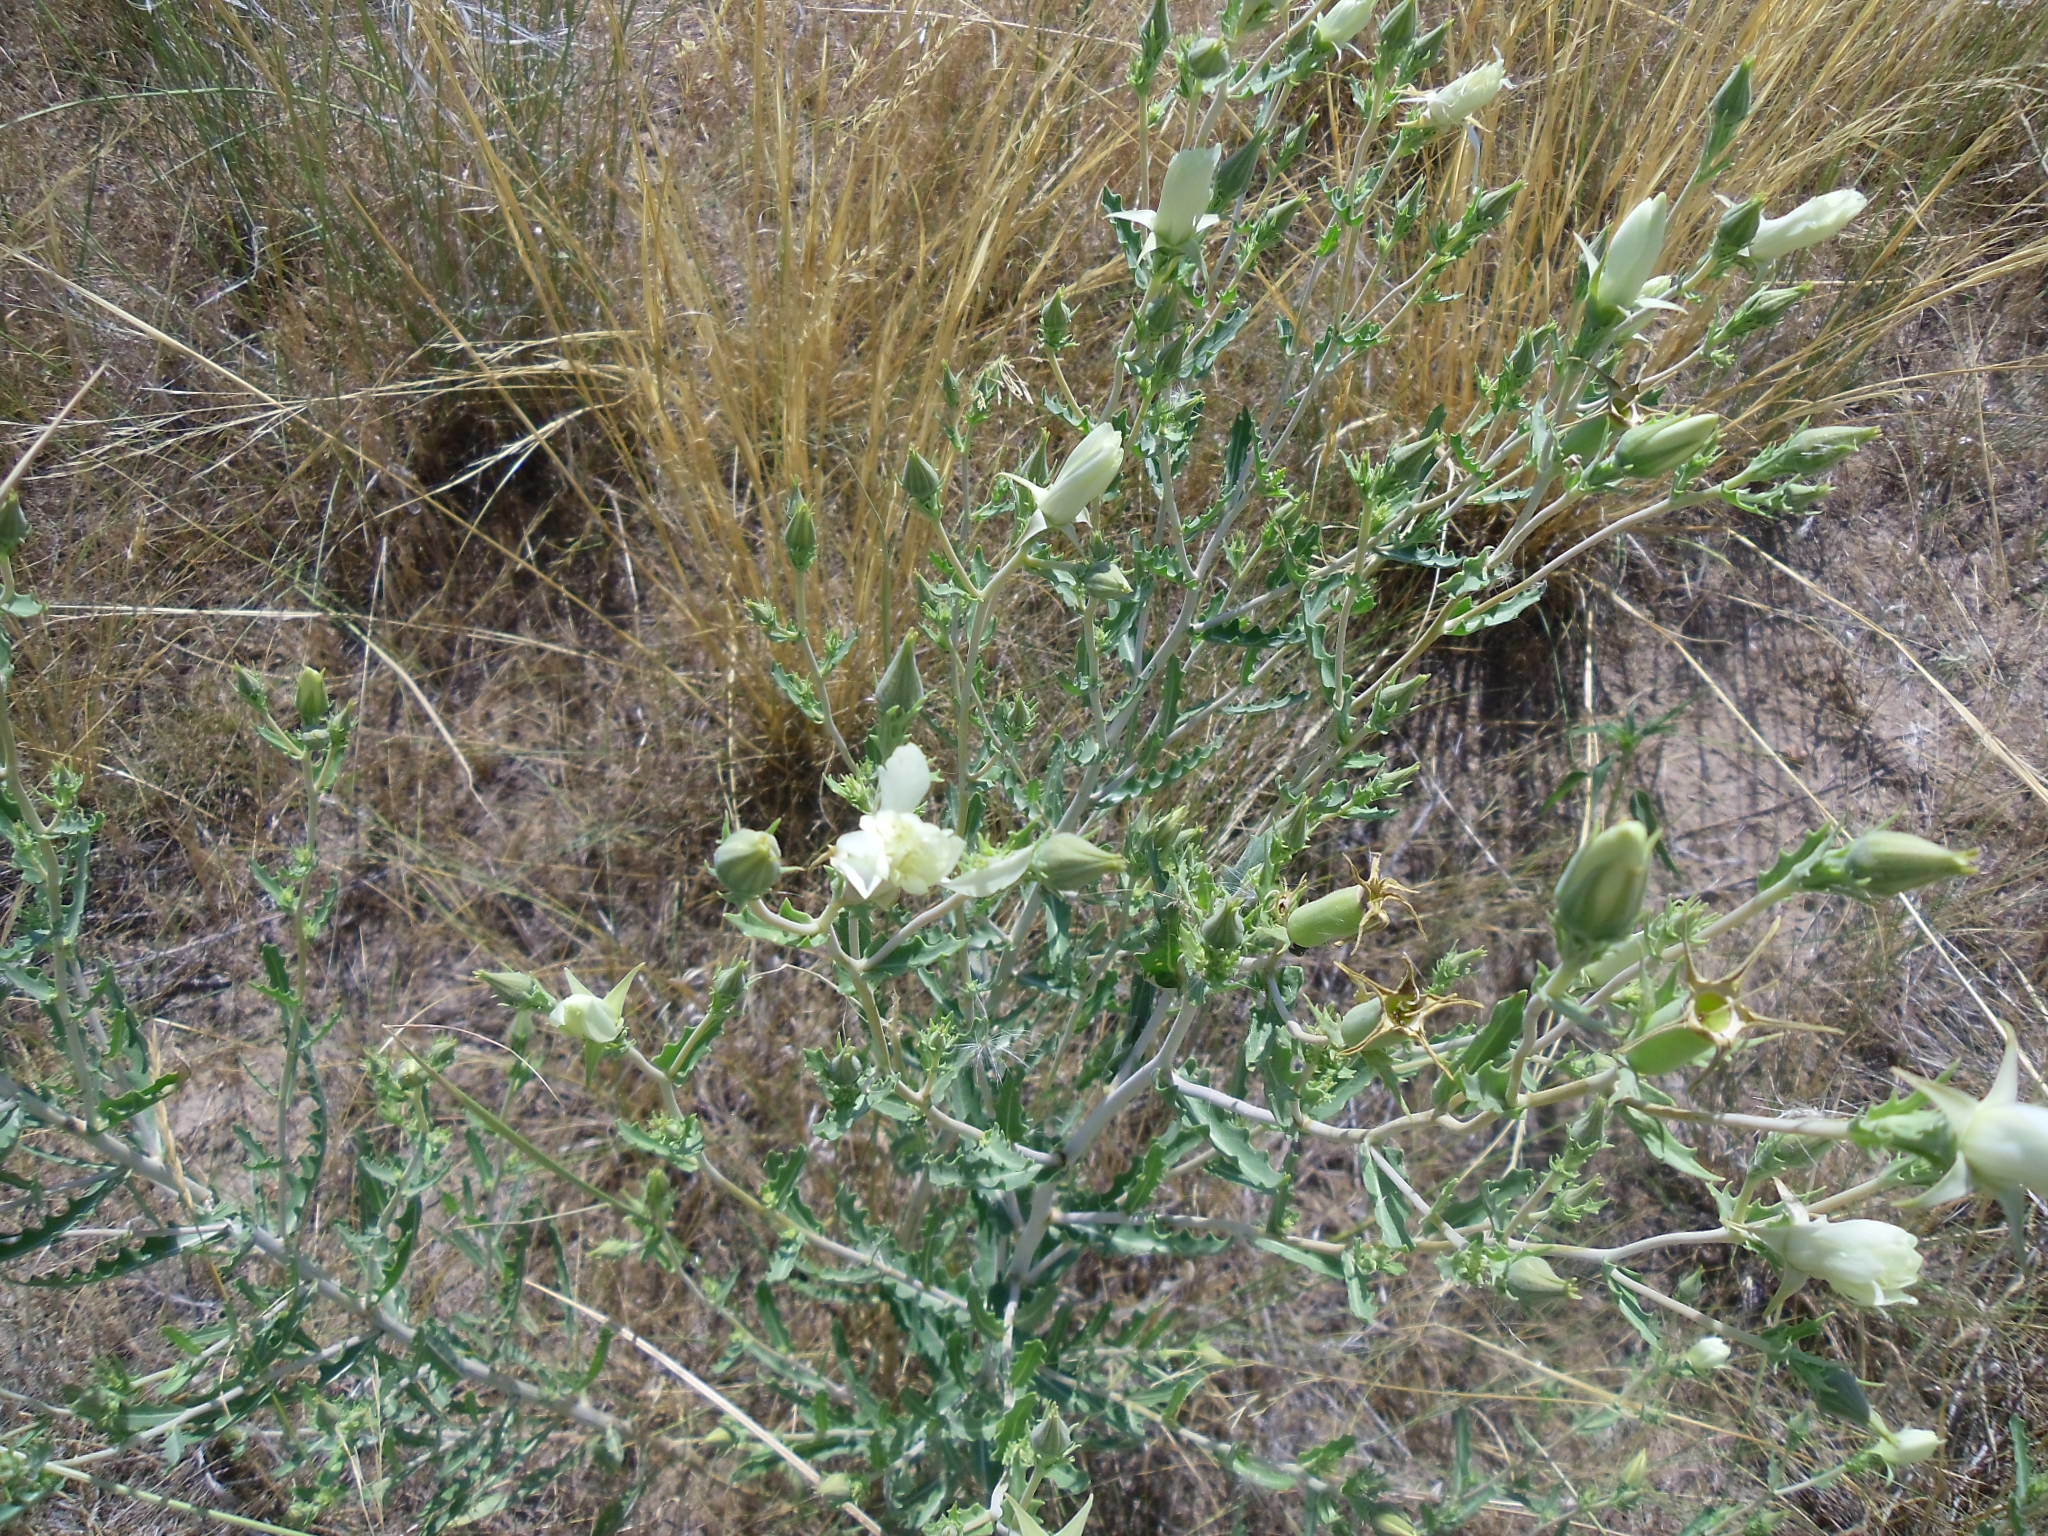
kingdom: Plantae
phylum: Tracheophyta
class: Magnoliopsida
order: Cornales
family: Loasaceae
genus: Mentzelia
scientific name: Mentzelia nuda
